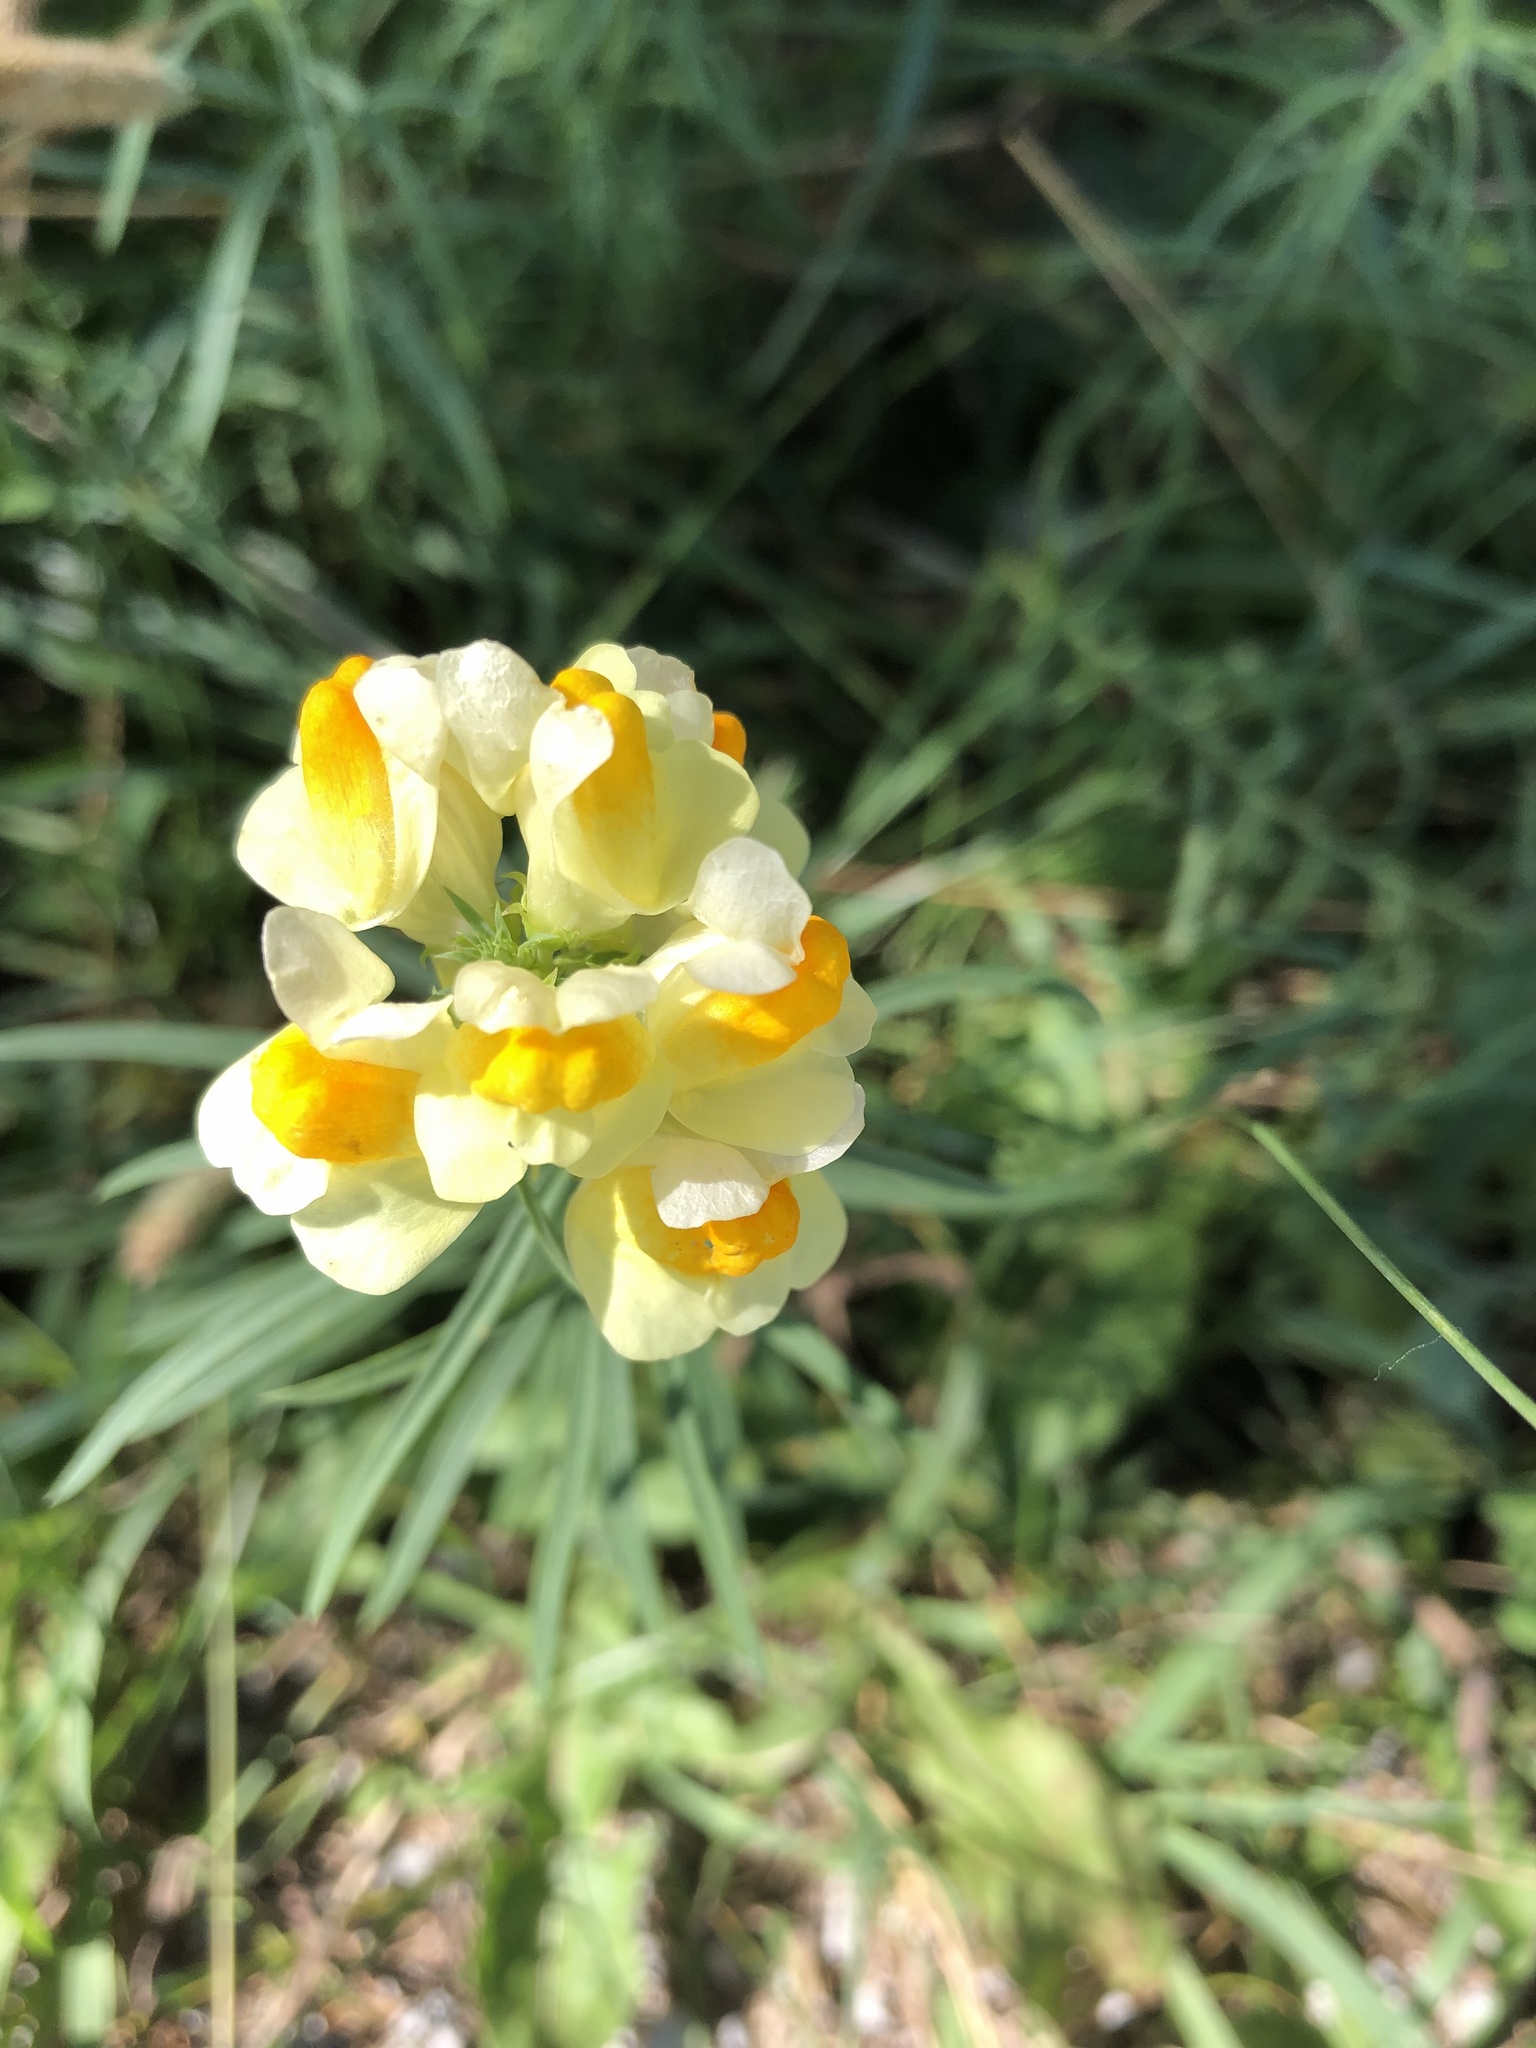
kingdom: Plantae
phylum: Tracheophyta
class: Magnoliopsida
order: Lamiales
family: Plantaginaceae
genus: Linaria
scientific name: Linaria vulgaris
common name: Butter and eggs
